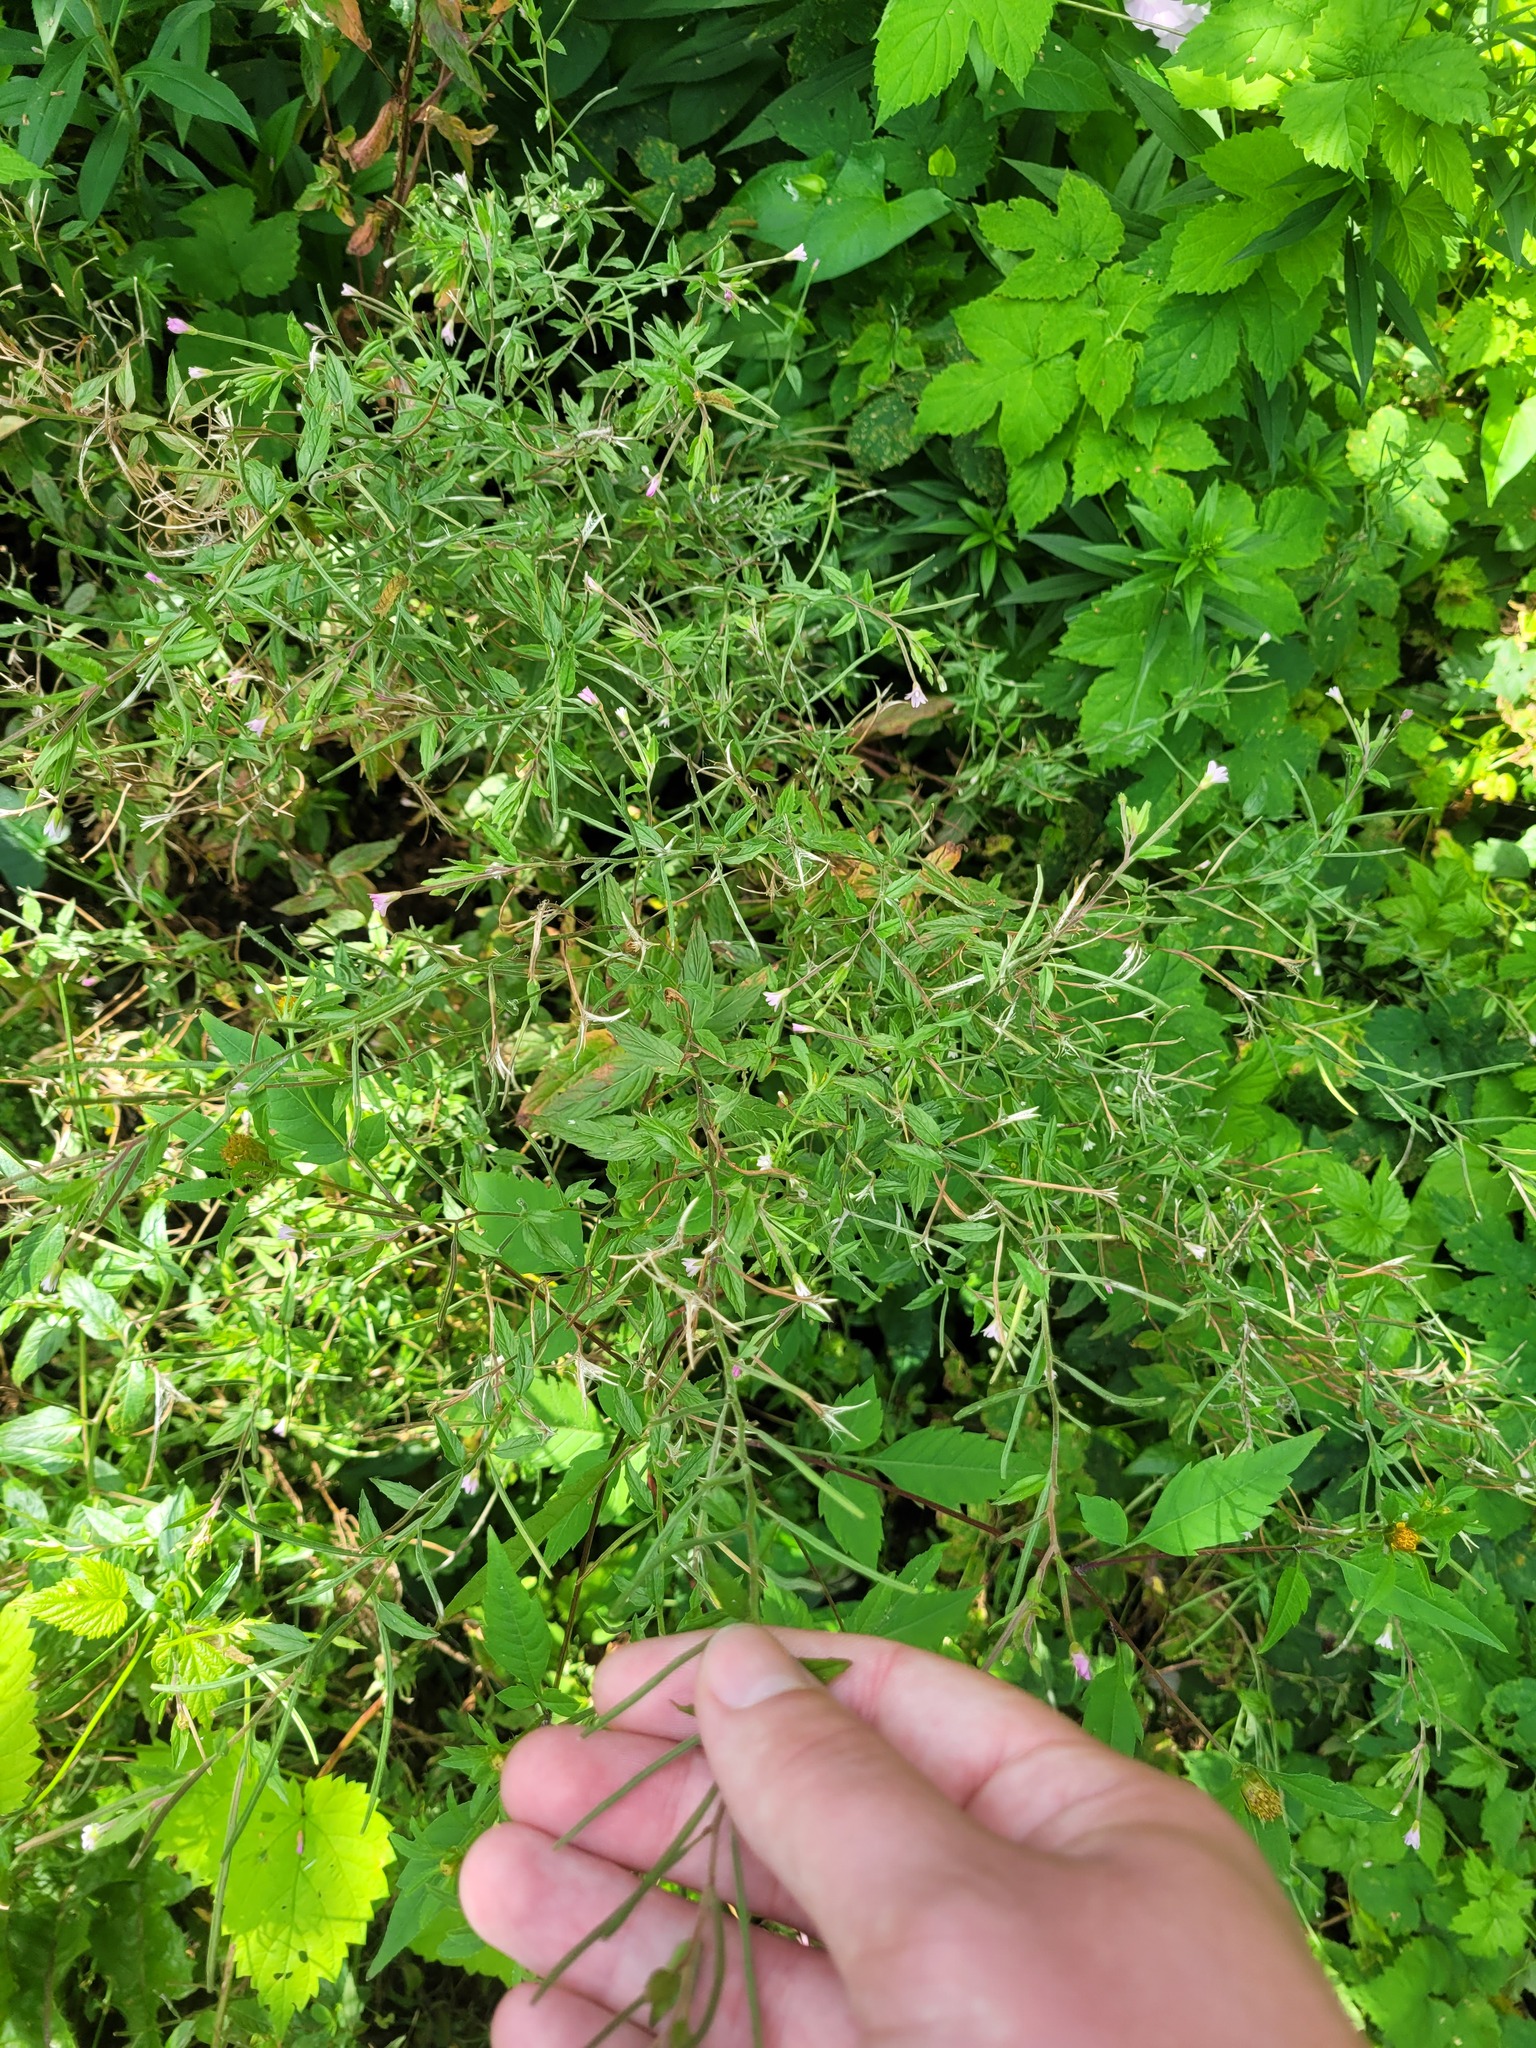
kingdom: Plantae
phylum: Tracheophyta
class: Magnoliopsida
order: Myrtales
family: Onagraceae
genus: Epilobium
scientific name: Epilobium ciliatum
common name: American willowherb
